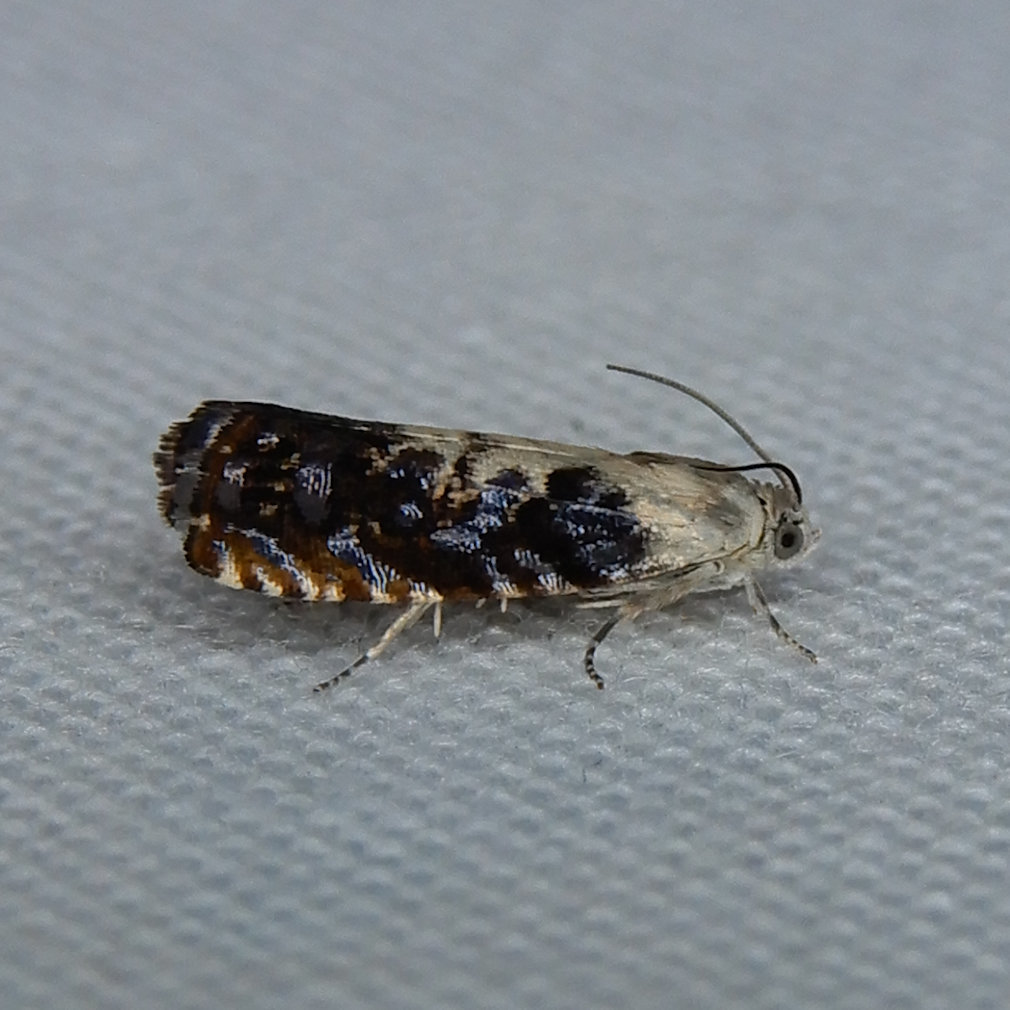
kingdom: Animalia
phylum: Arthropoda
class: Insecta
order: Lepidoptera
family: Tortricidae
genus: Pammene
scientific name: Pammene felicitana
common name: Happy pammene
